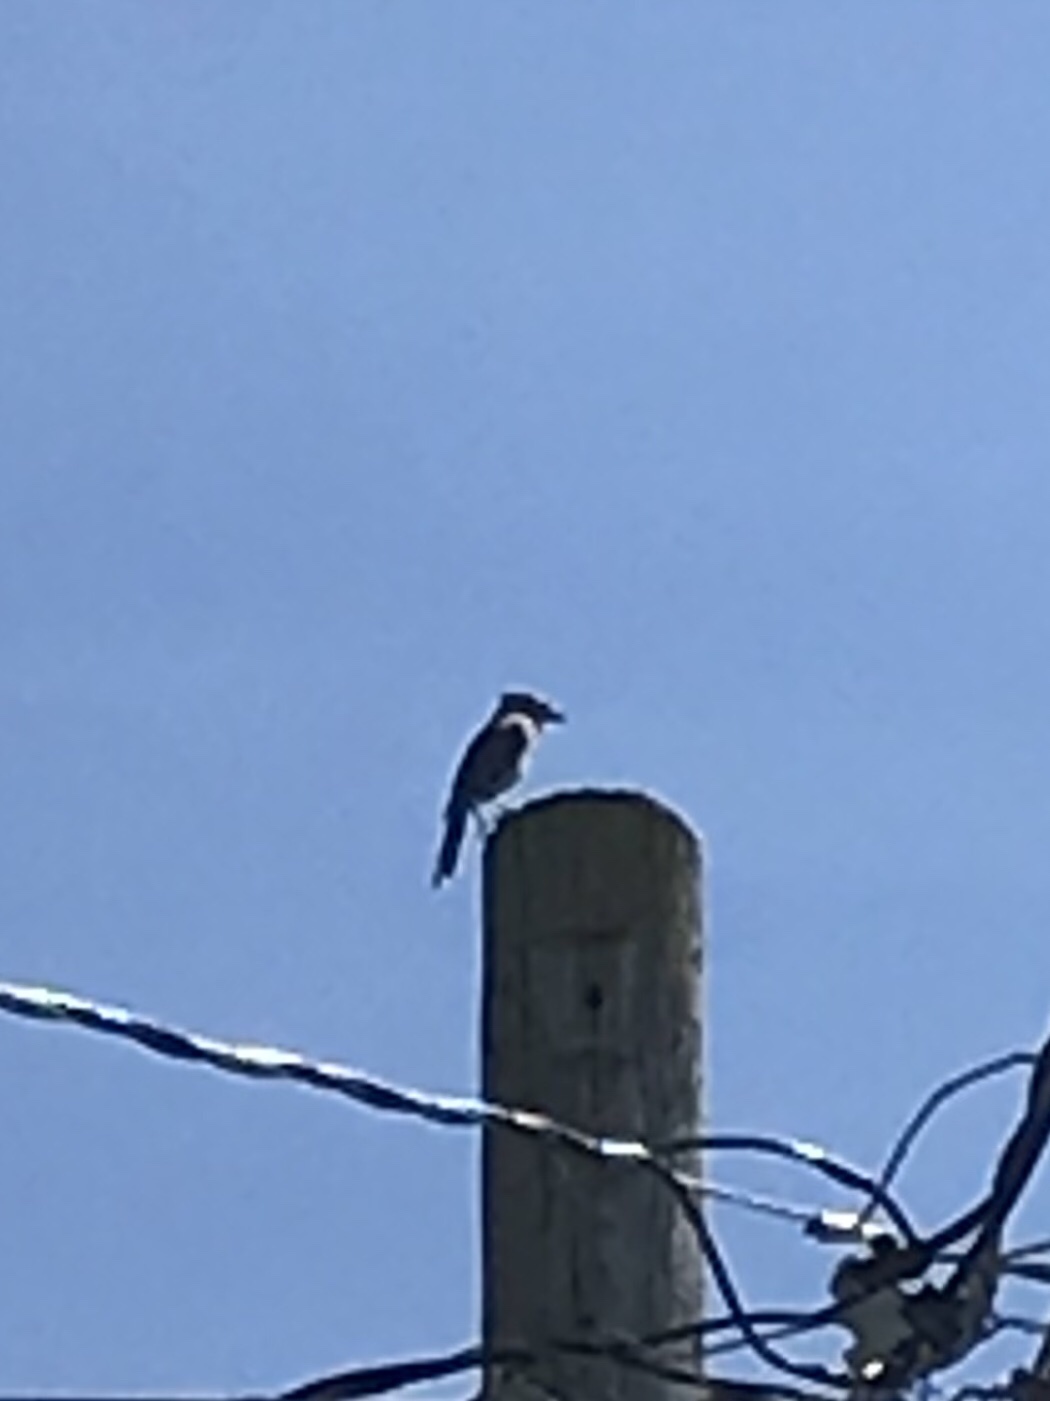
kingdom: Animalia
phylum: Chordata
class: Aves
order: Passeriformes
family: Corvidae
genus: Cyanocitta
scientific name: Cyanocitta cristata
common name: Blue jay
